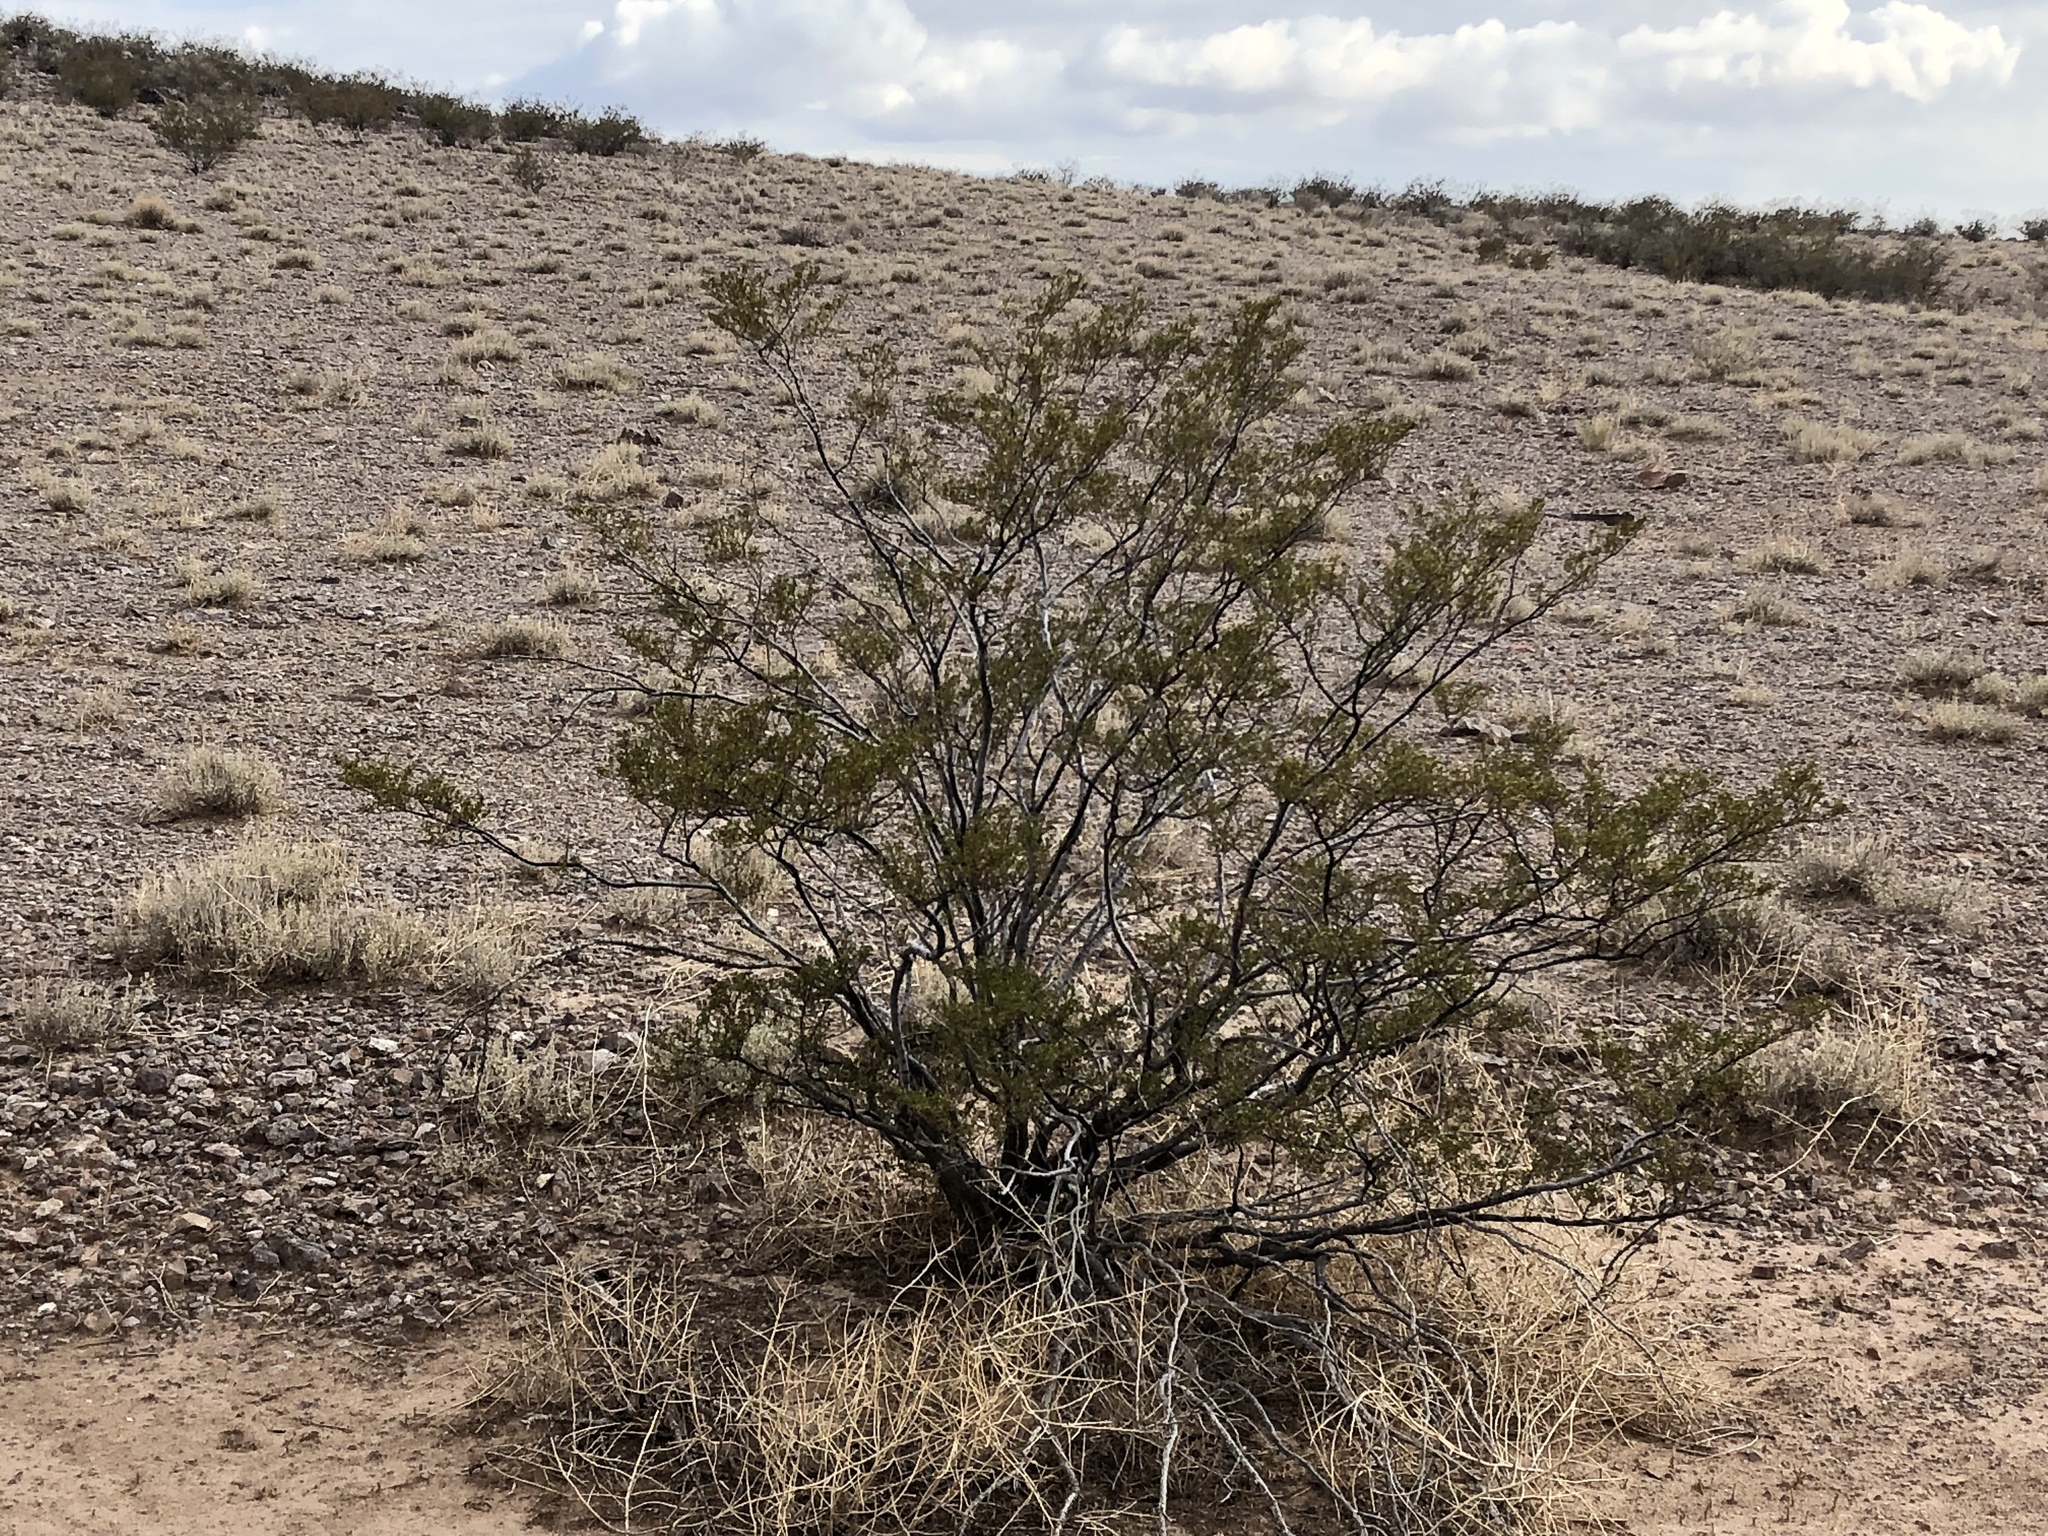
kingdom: Plantae
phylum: Tracheophyta
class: Magnoliopsida
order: Zygophyllales
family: Zygophyllaceae
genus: Larrea
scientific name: Larrea tridentata
